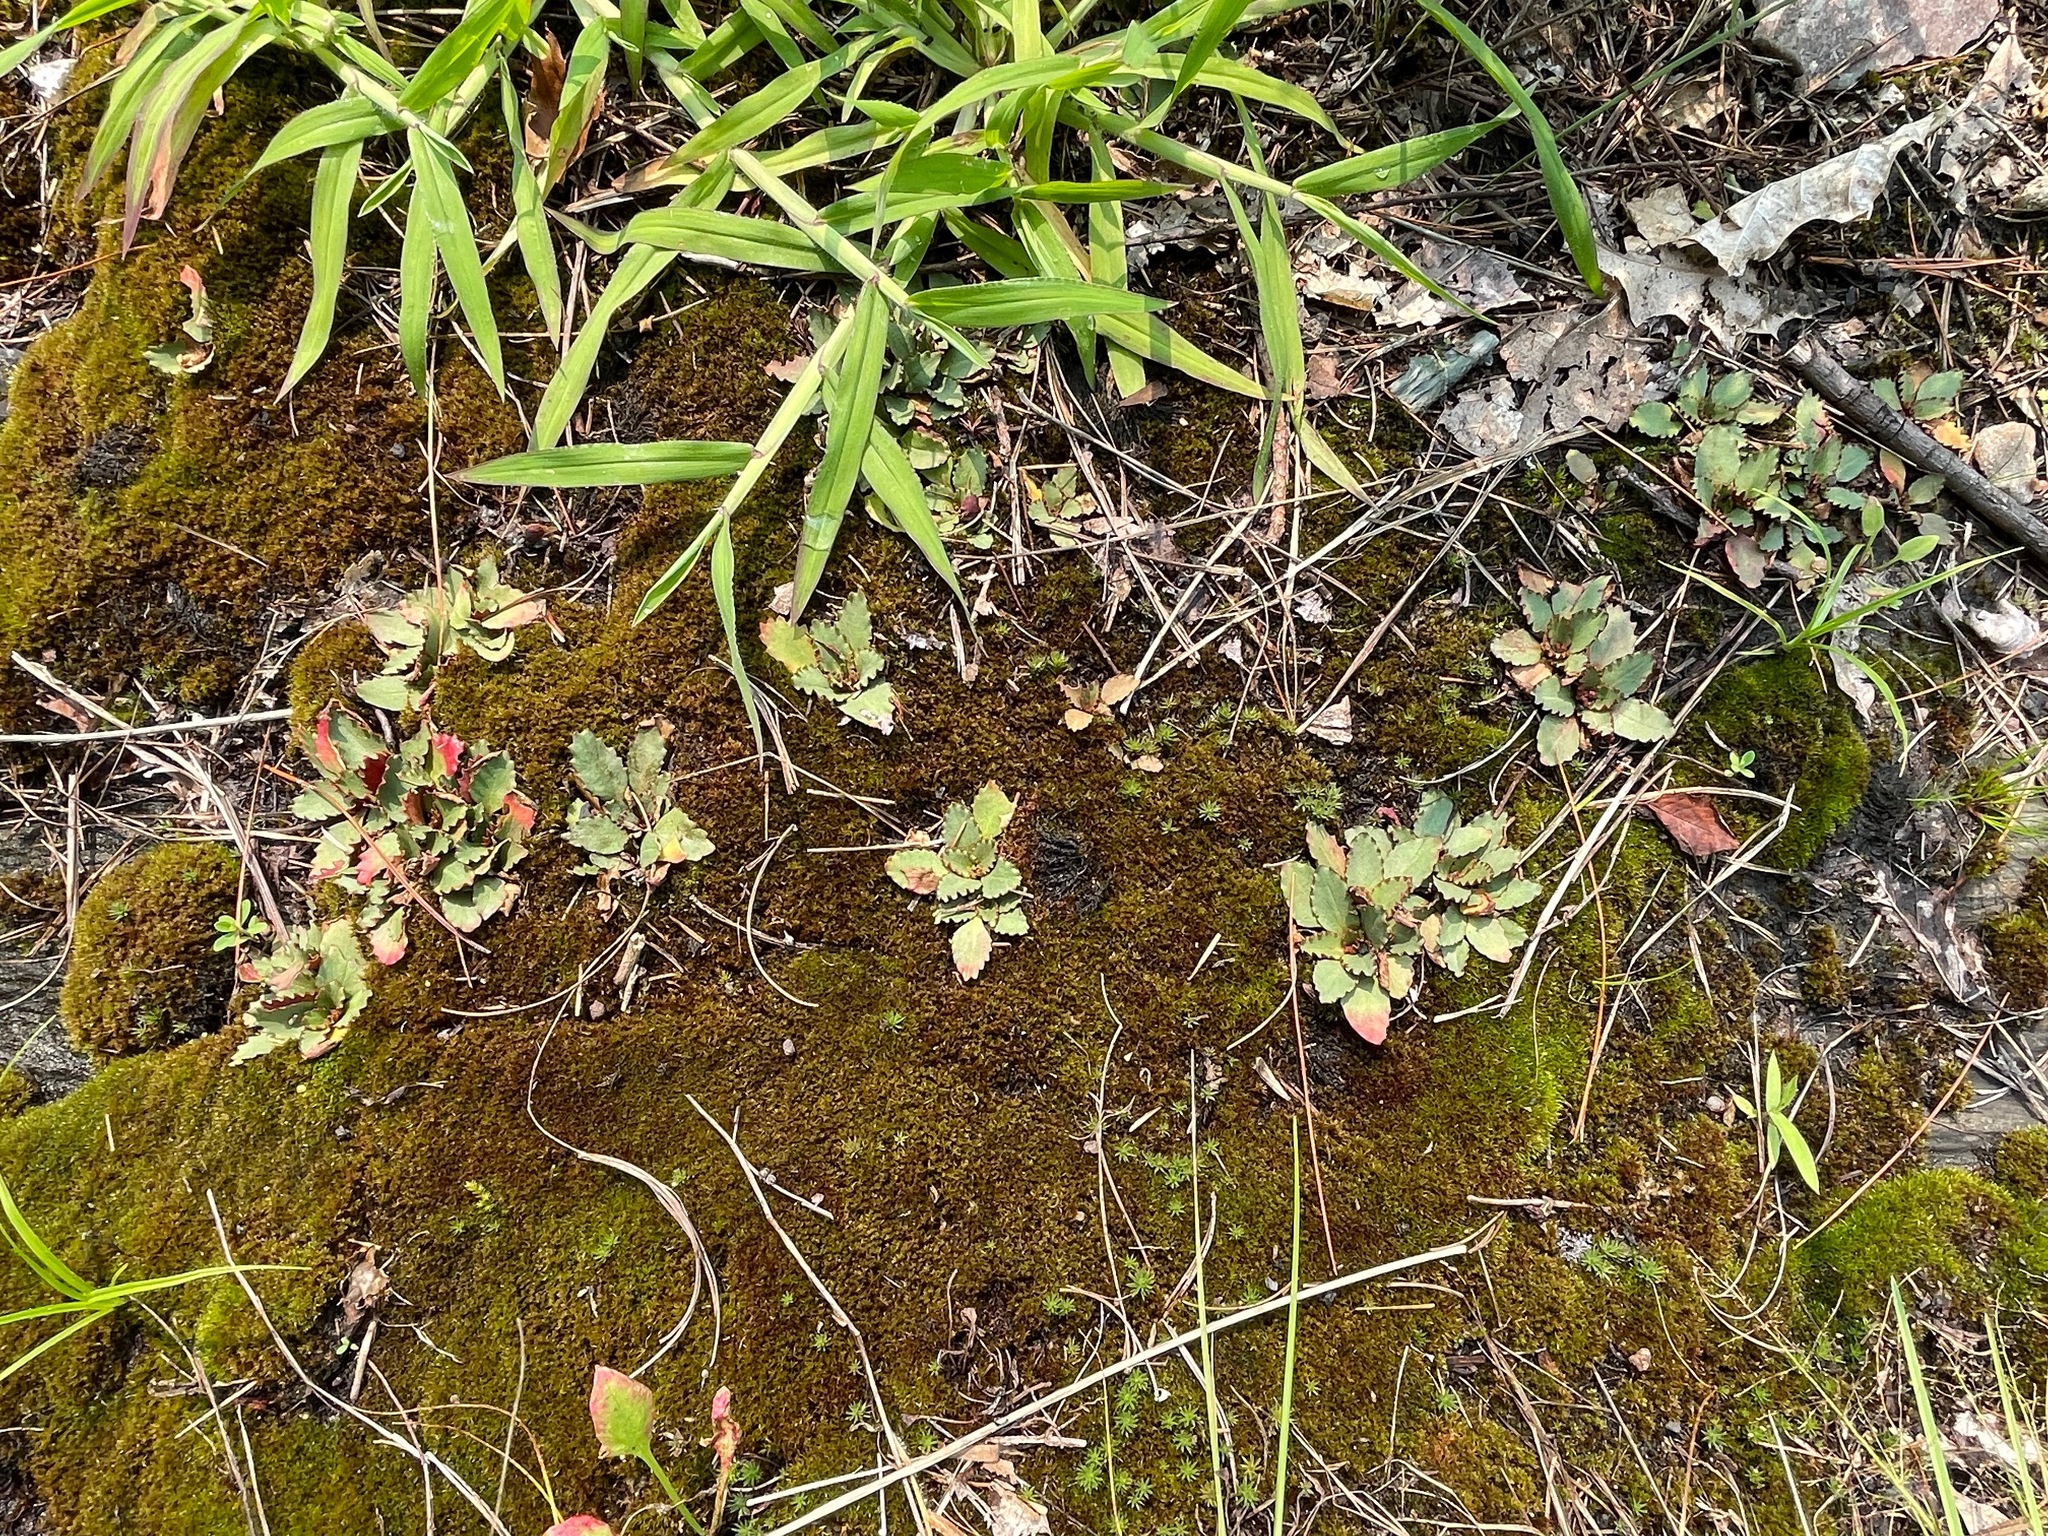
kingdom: Plantae
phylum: Tracheophyta
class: Magnoliopsida
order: Saxifragales
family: Saxifragaceae
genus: Micranthes
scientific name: Micranthes virginiensis
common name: Early saxifrage
